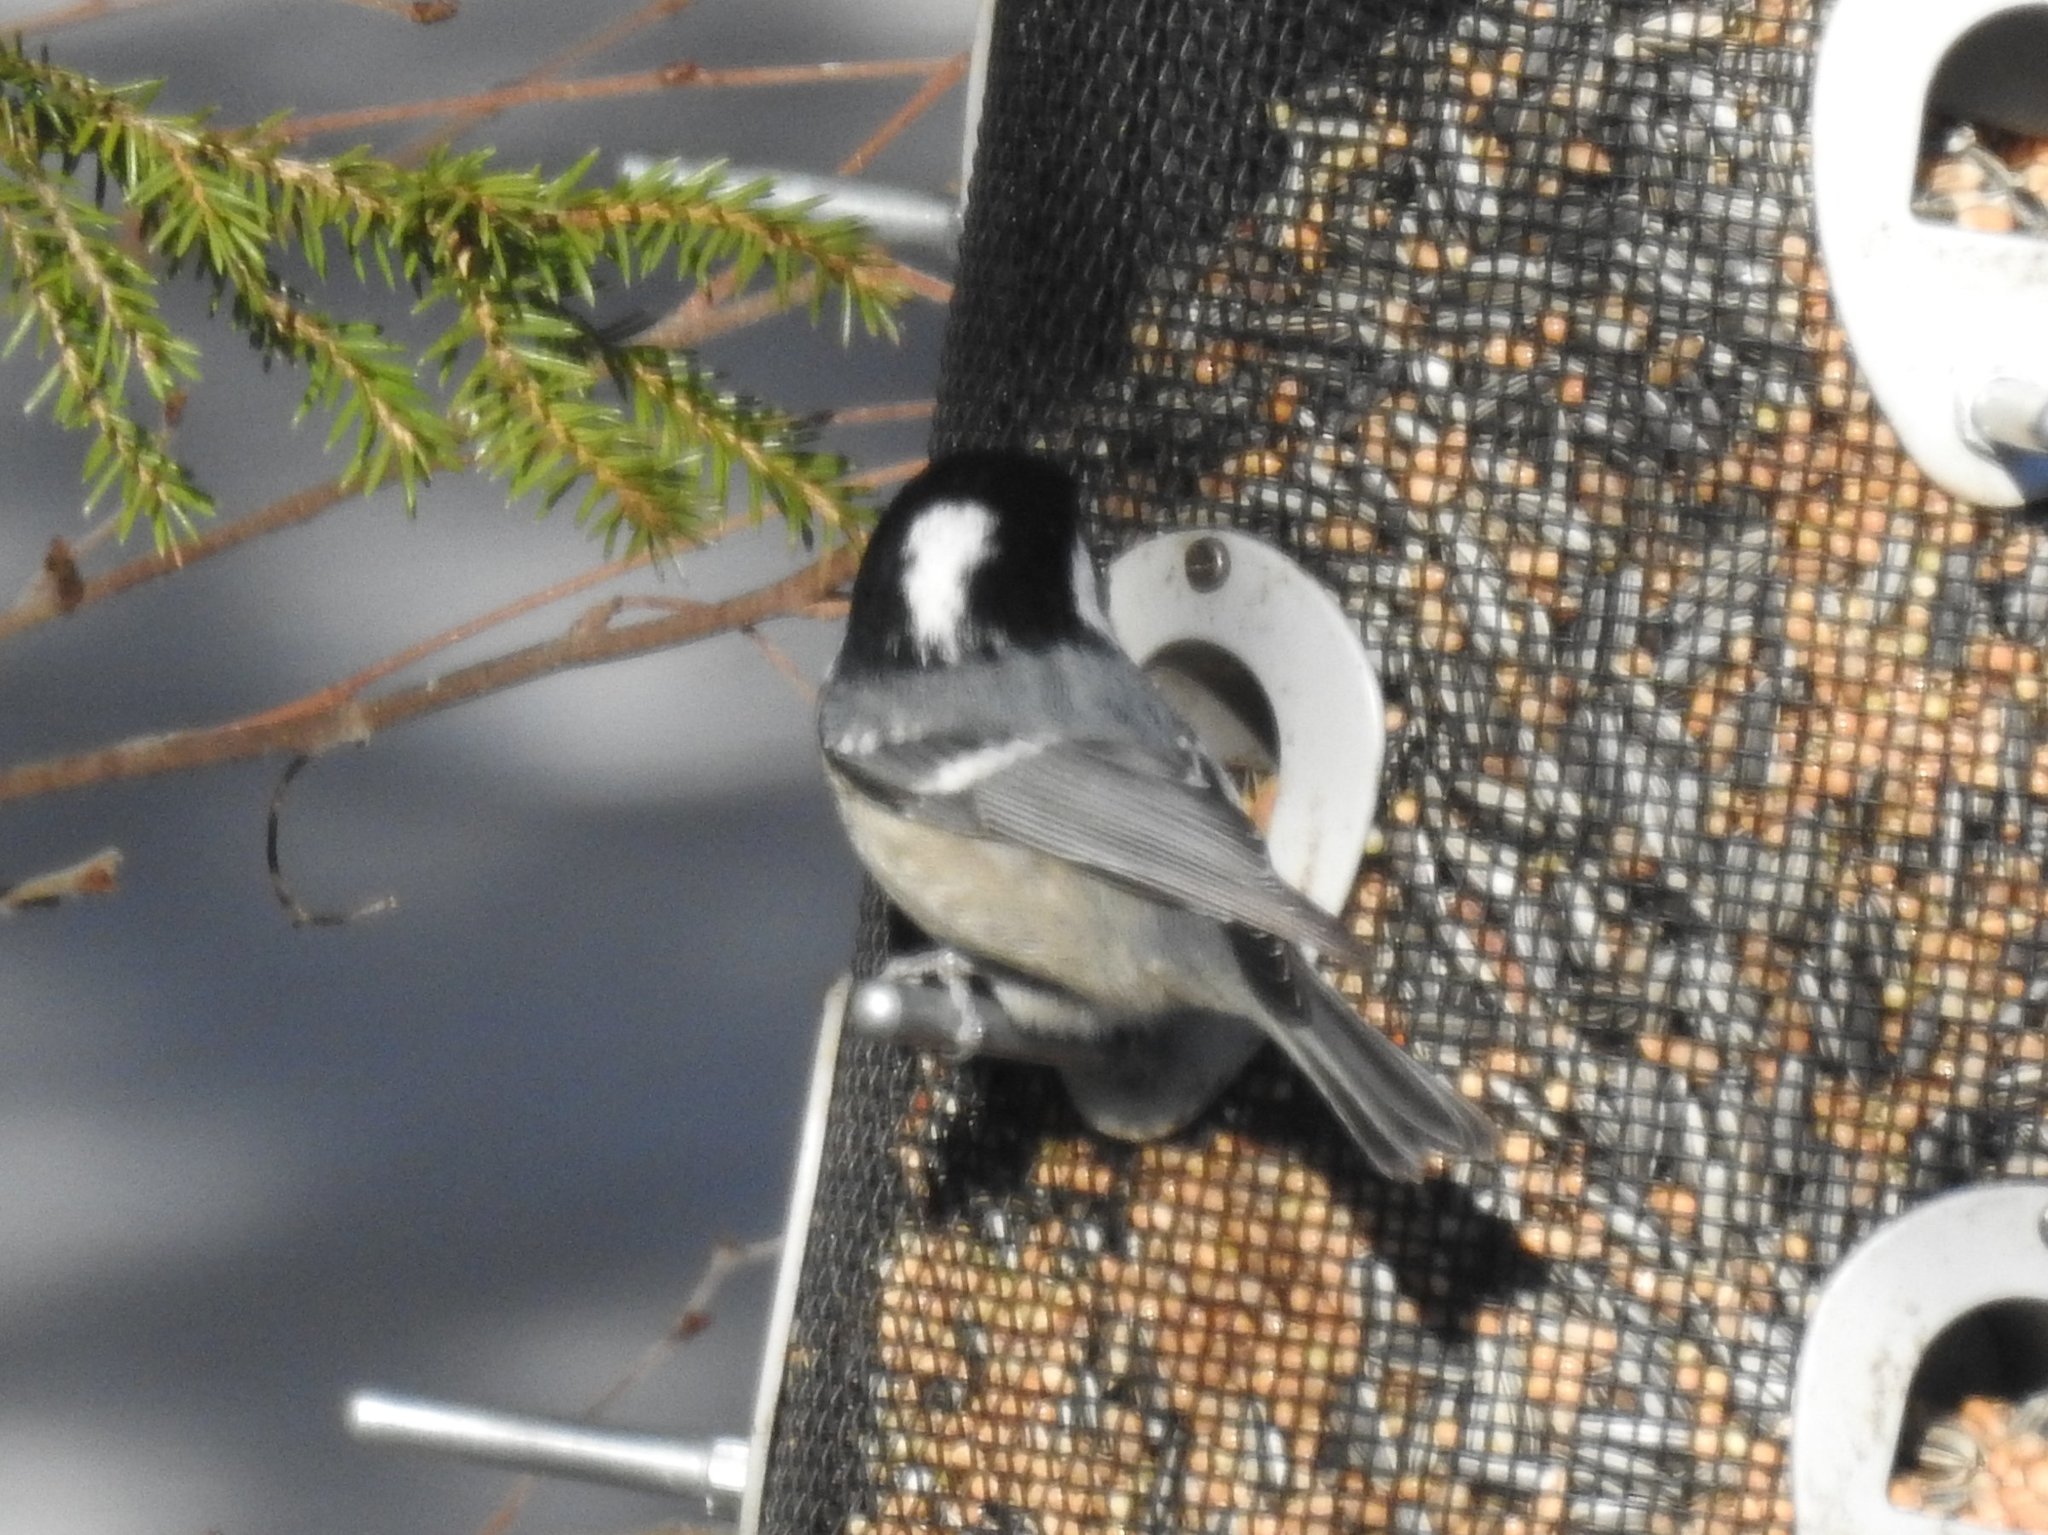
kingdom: Animalia
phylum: Chordata
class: Aves
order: Passeriformes
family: Paridae
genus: Periparus
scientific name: Periparus ater
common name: Coal tit
